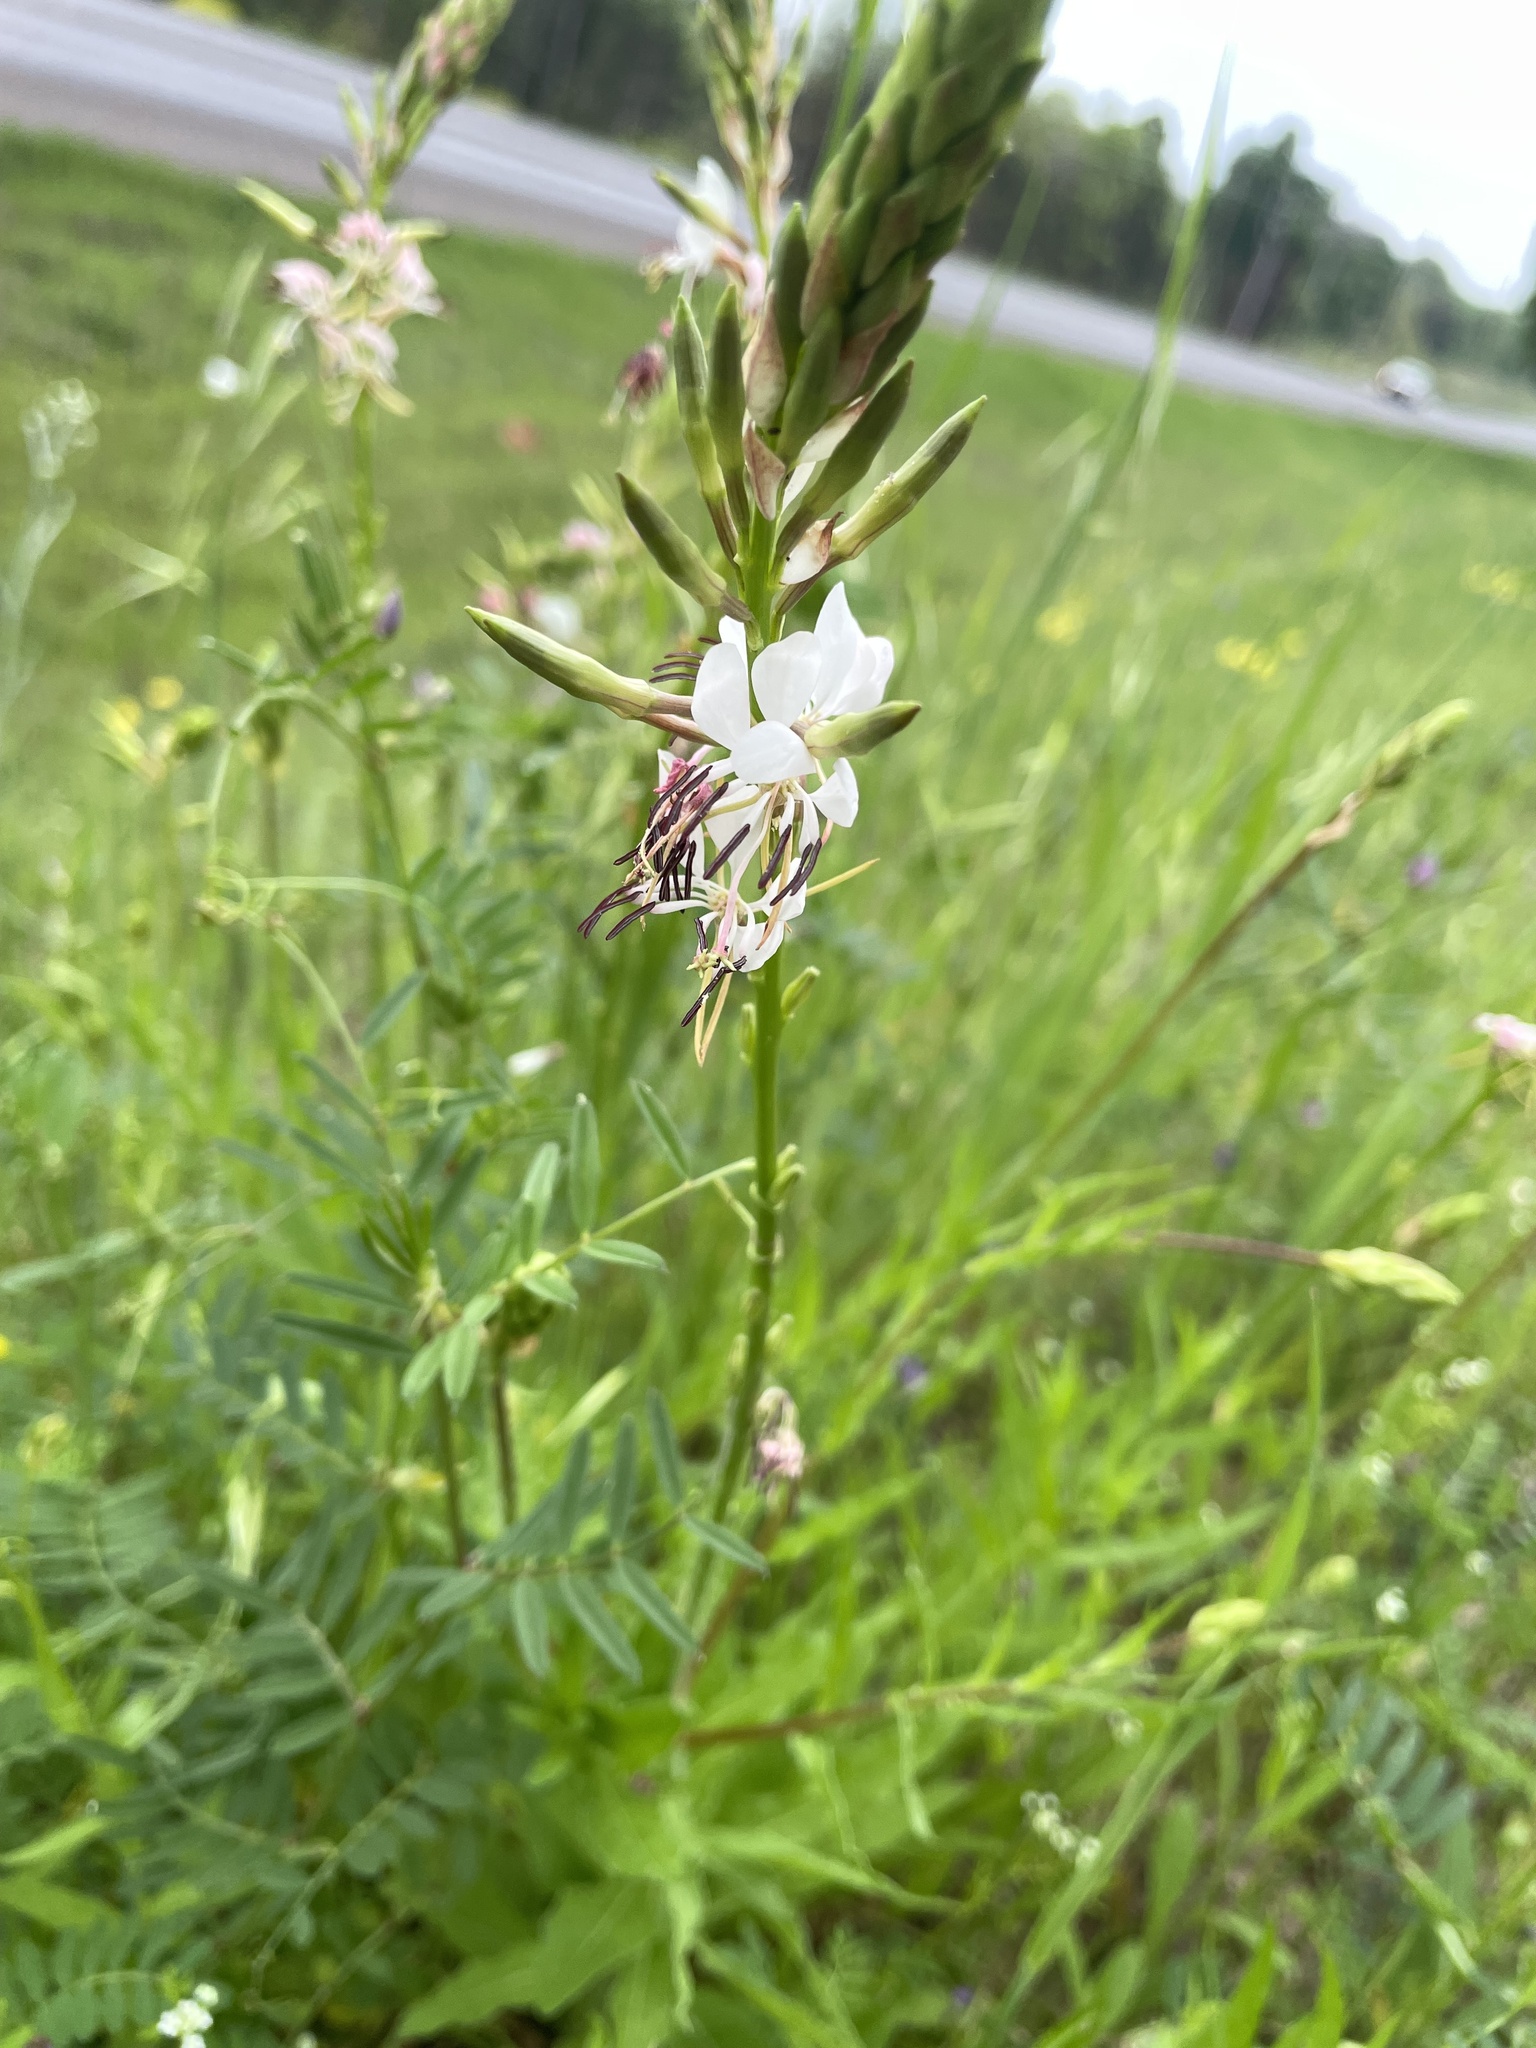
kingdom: Plantae
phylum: Tracheophyta
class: Magnoliopsida
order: Myrtales
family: Onagraceae
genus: Oenothera
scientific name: Oenothera suffulta
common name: Kisses
